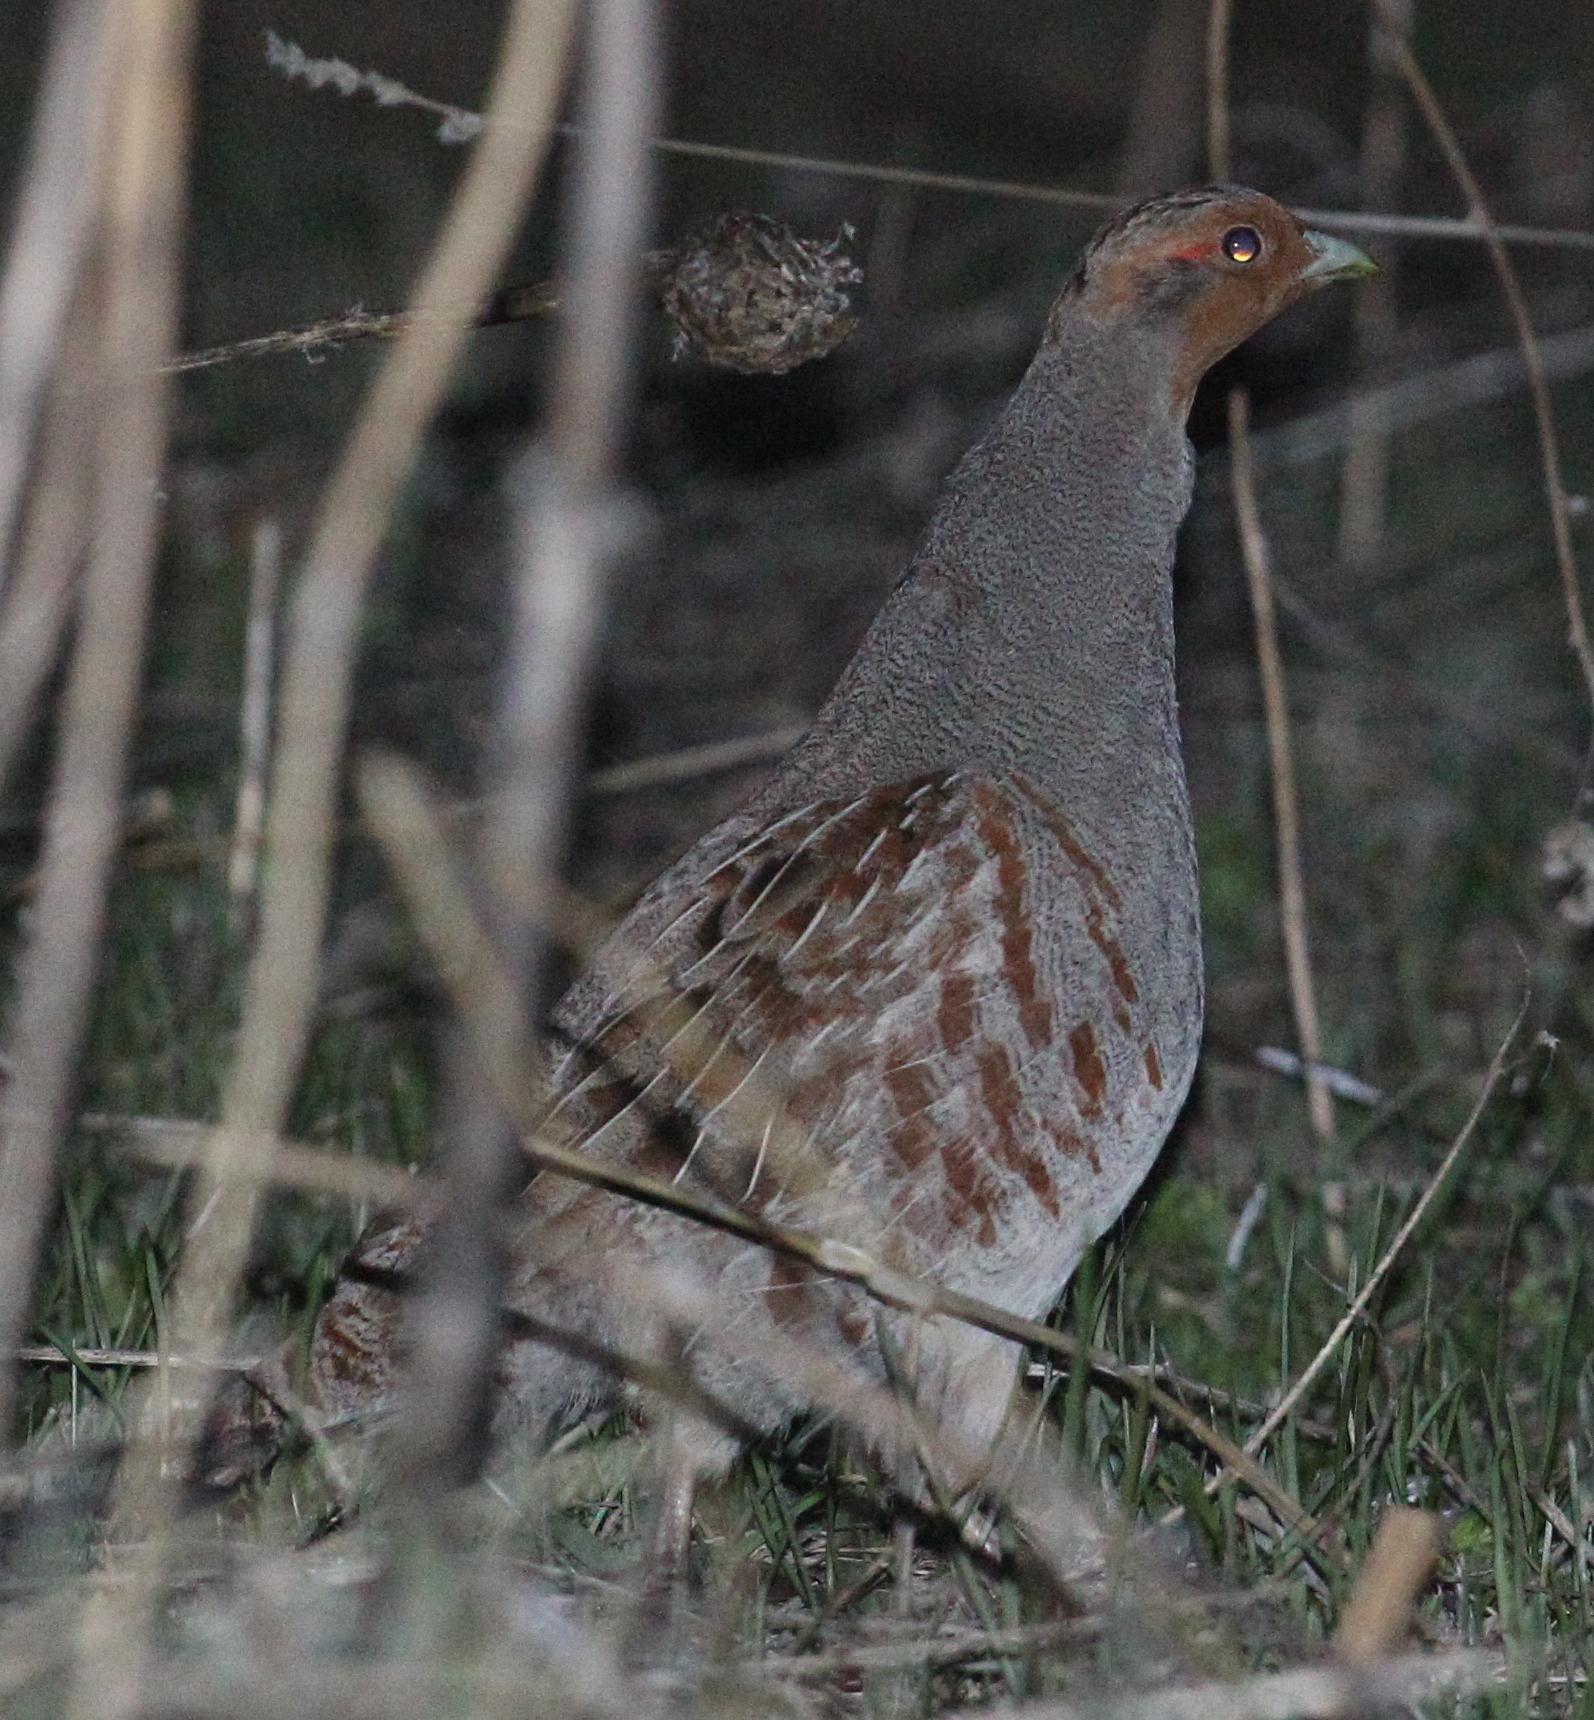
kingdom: Animalia
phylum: Chordata
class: Aves
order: Galliformes
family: Phasianidae
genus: Perdix
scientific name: Perdix perdix
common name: Grey partridge
